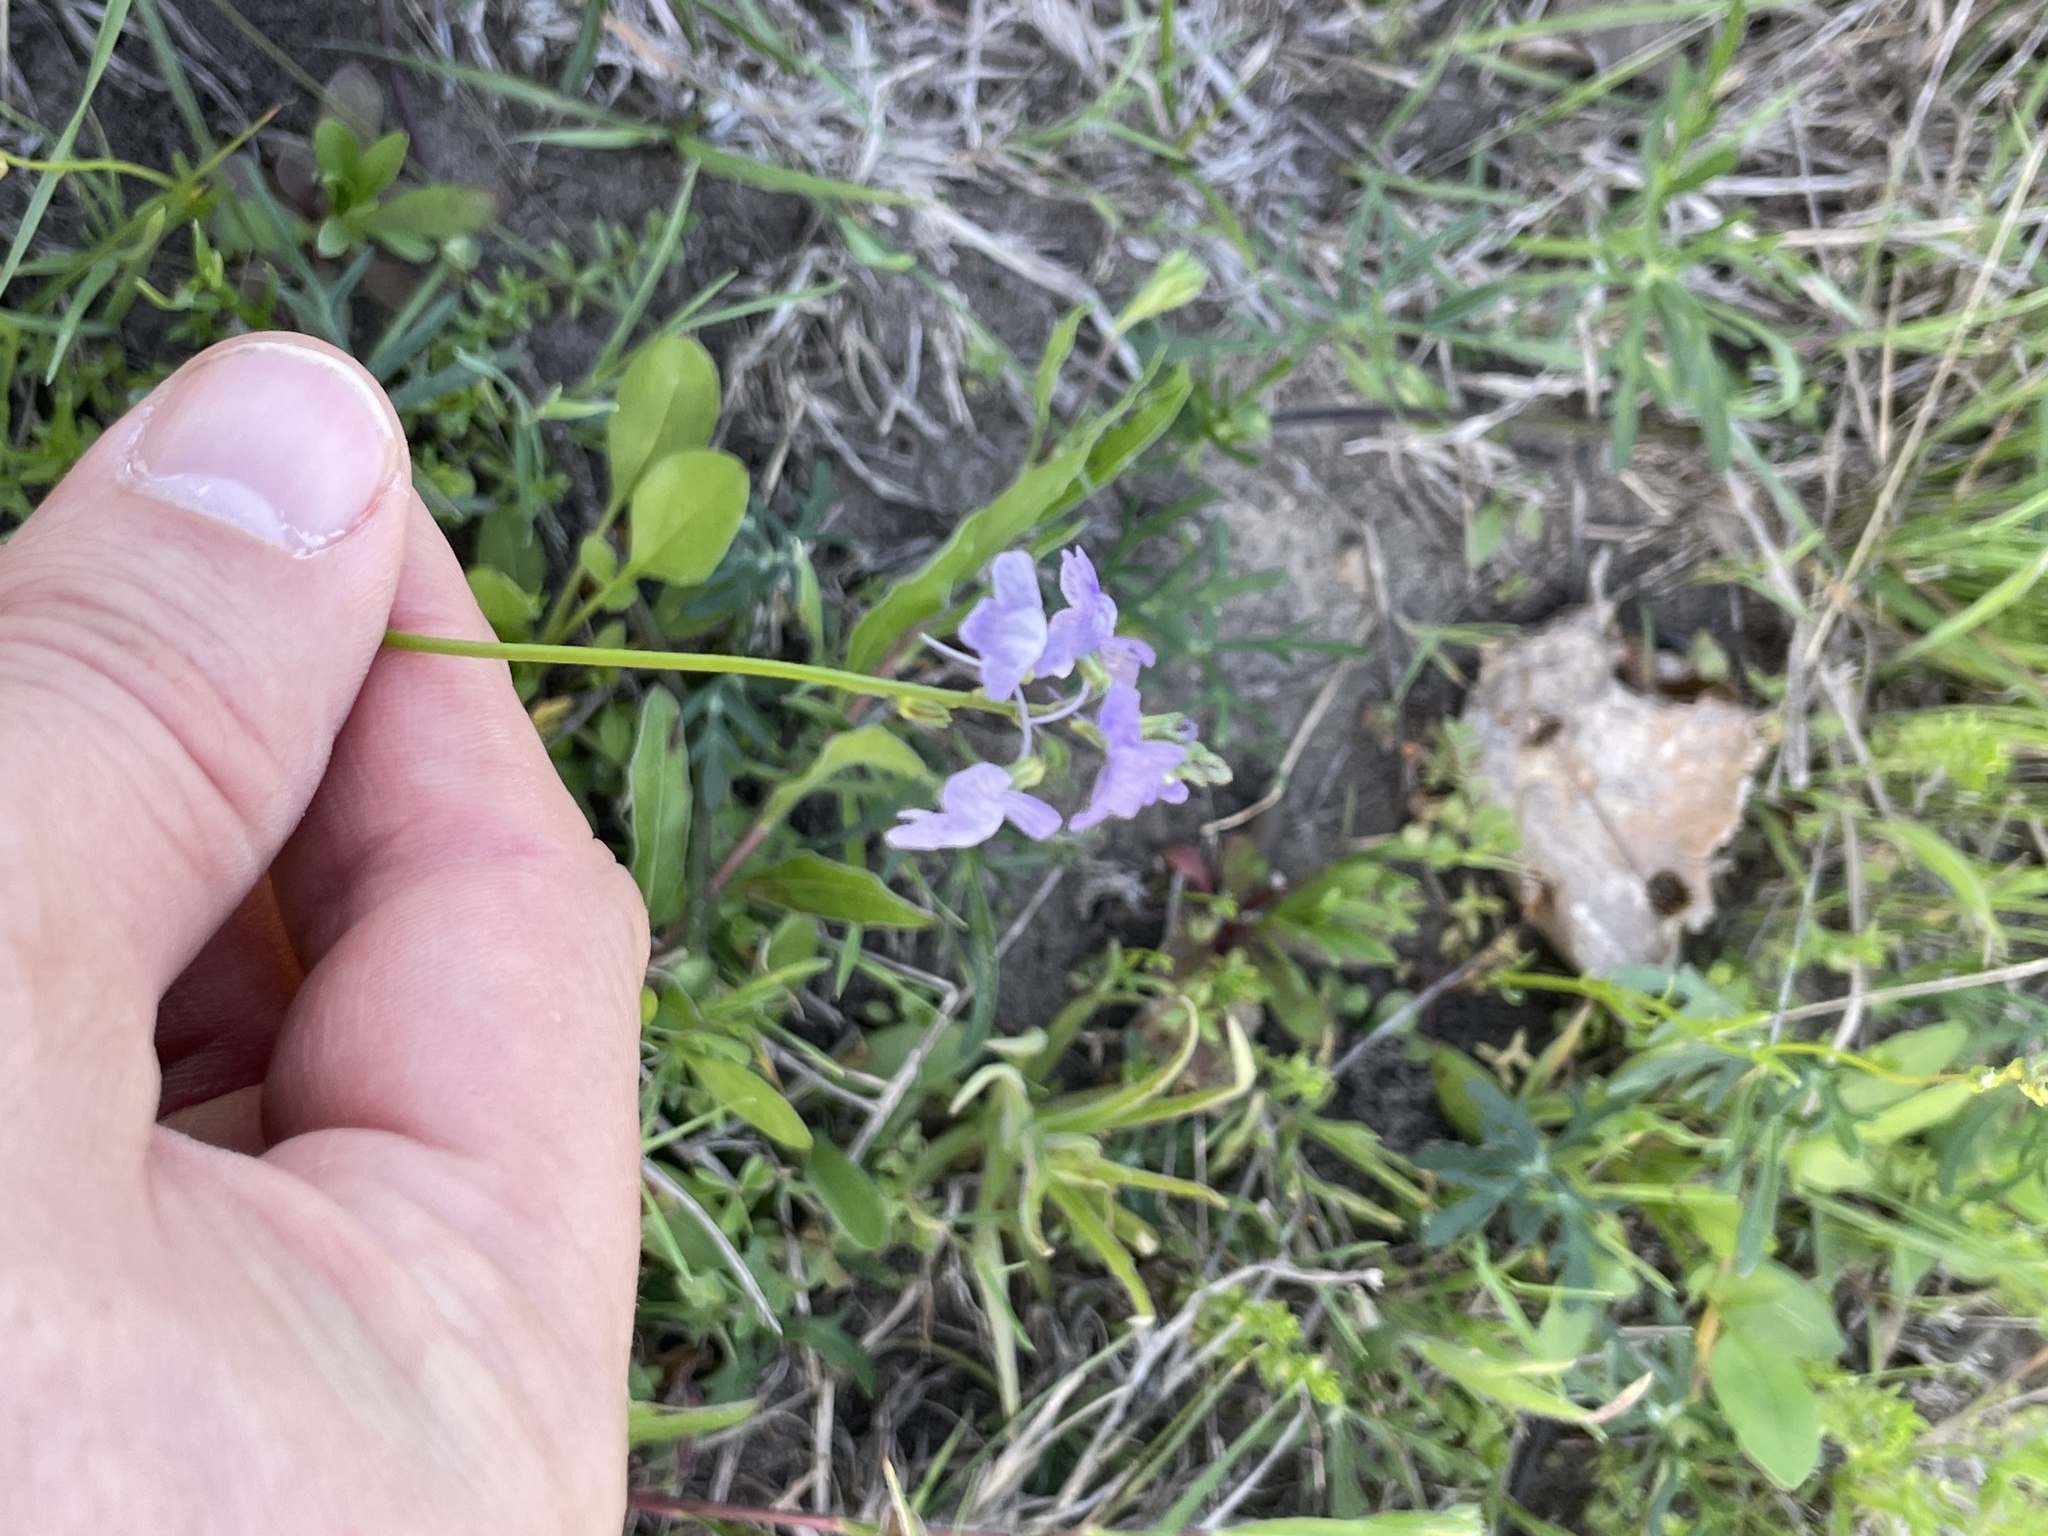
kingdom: Plantae
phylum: Tracheophyta
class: Magnoliopsida
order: Lamiales
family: Plantaginaceae
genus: Nuttallanthus
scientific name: Nuttallanthus texanus
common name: Texas toadflax
